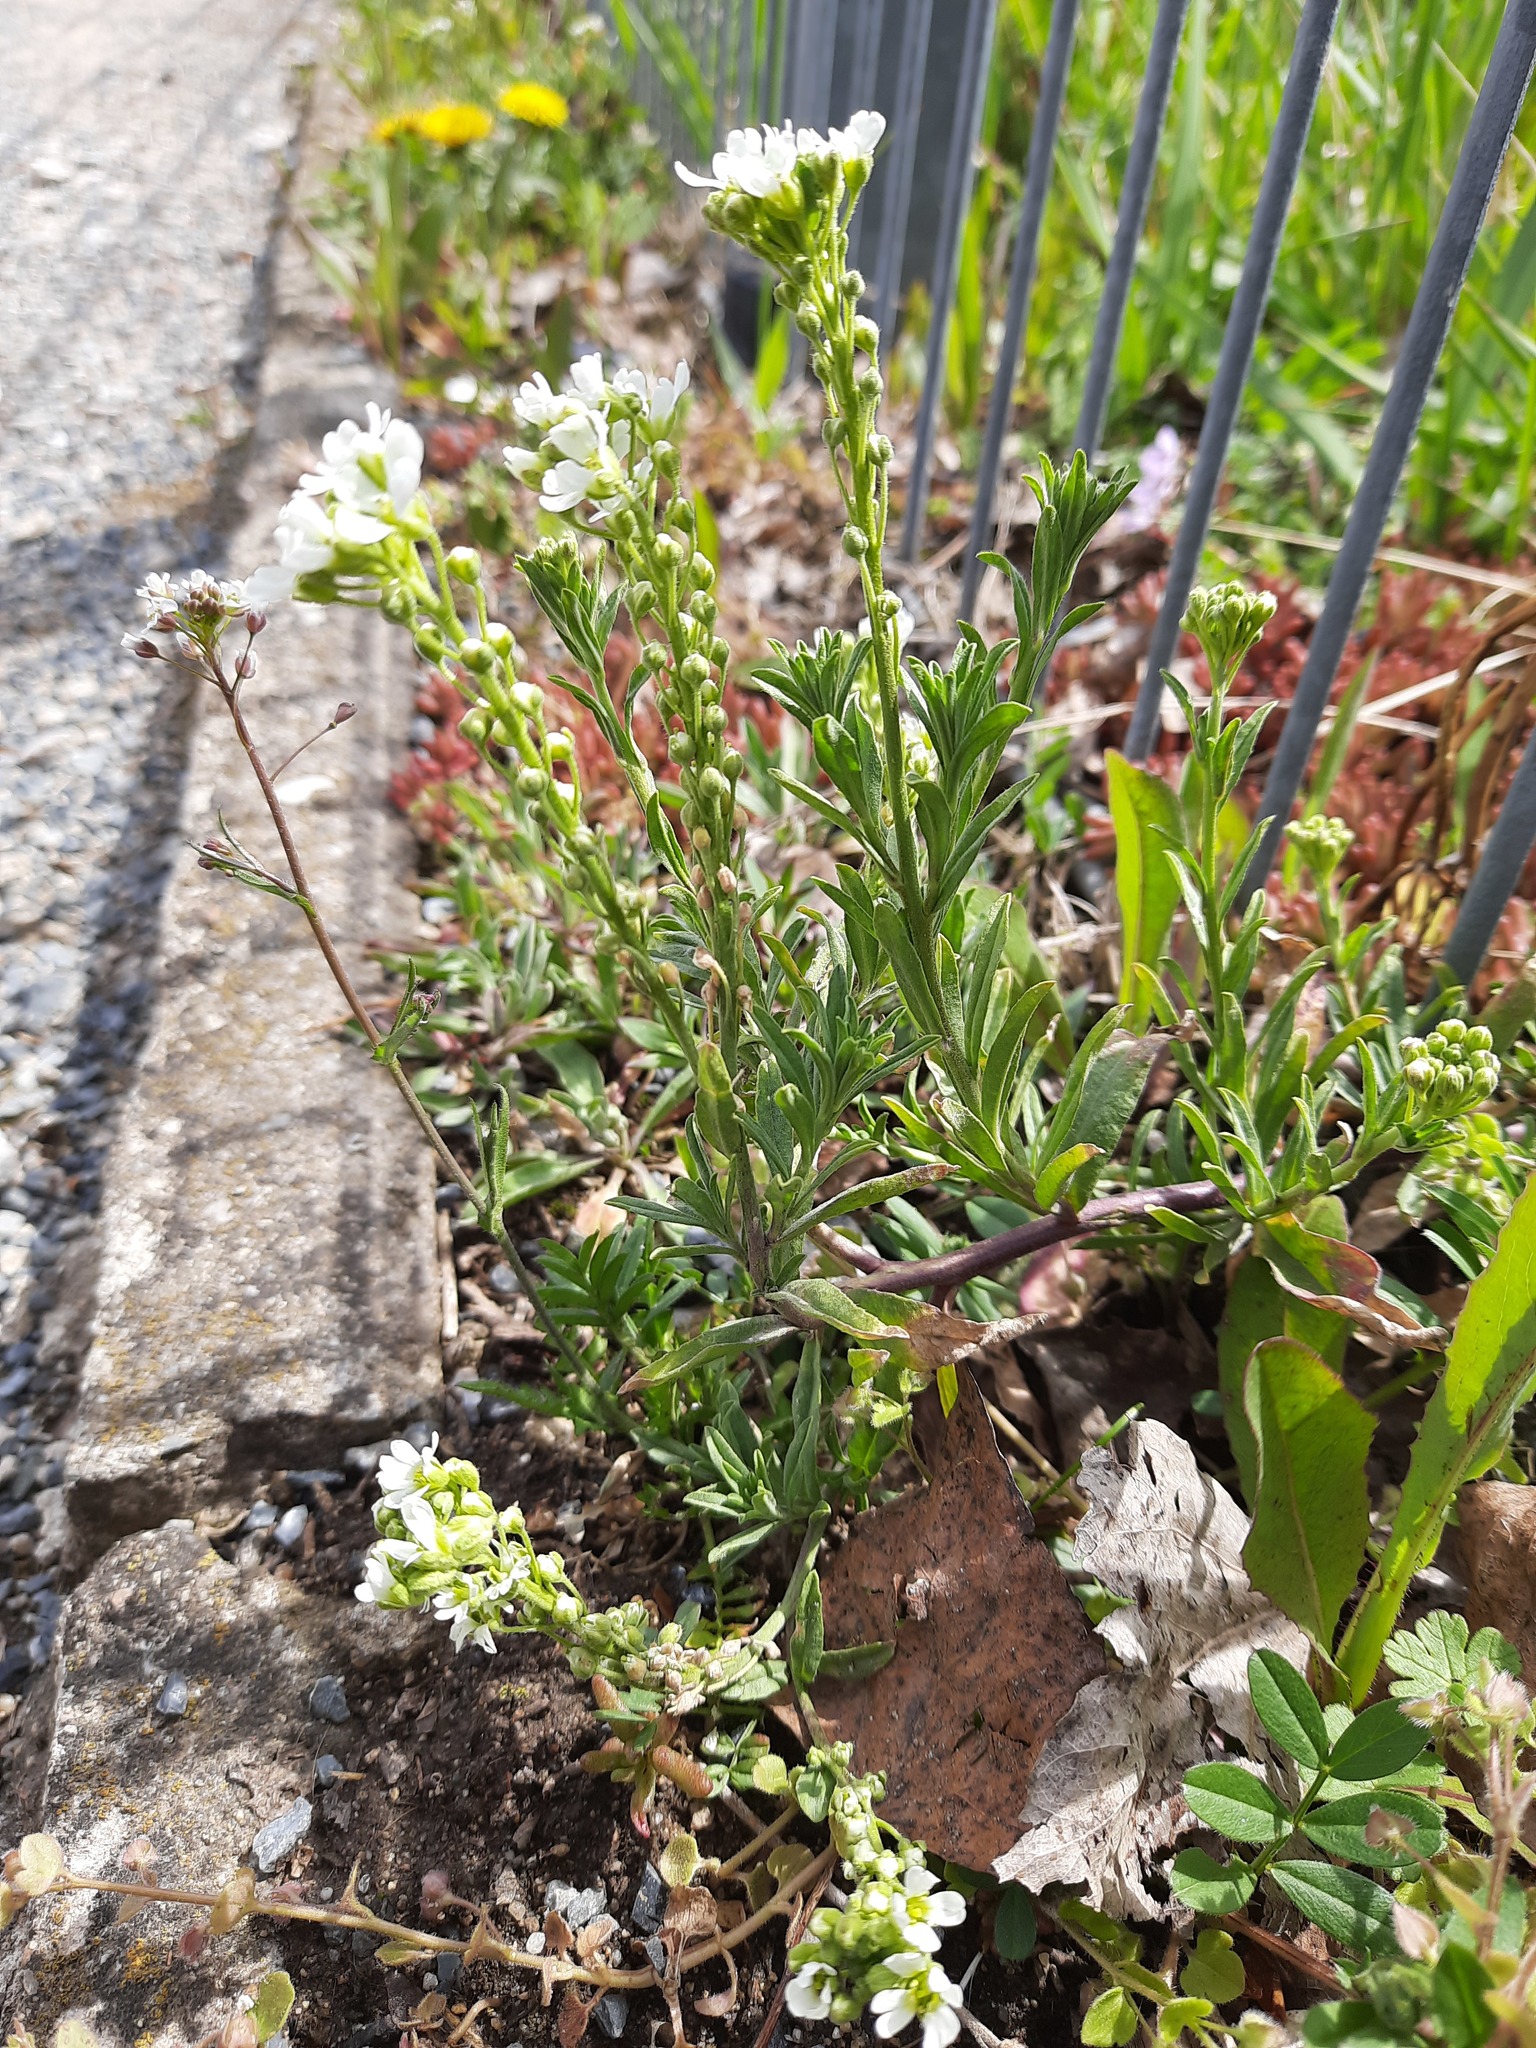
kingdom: Plantae
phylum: Tracheophyta
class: Magnoliopsida
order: Brassicales
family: Brassicaceae
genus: Berteroa
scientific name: Berteroa incana
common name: Hoary alison
